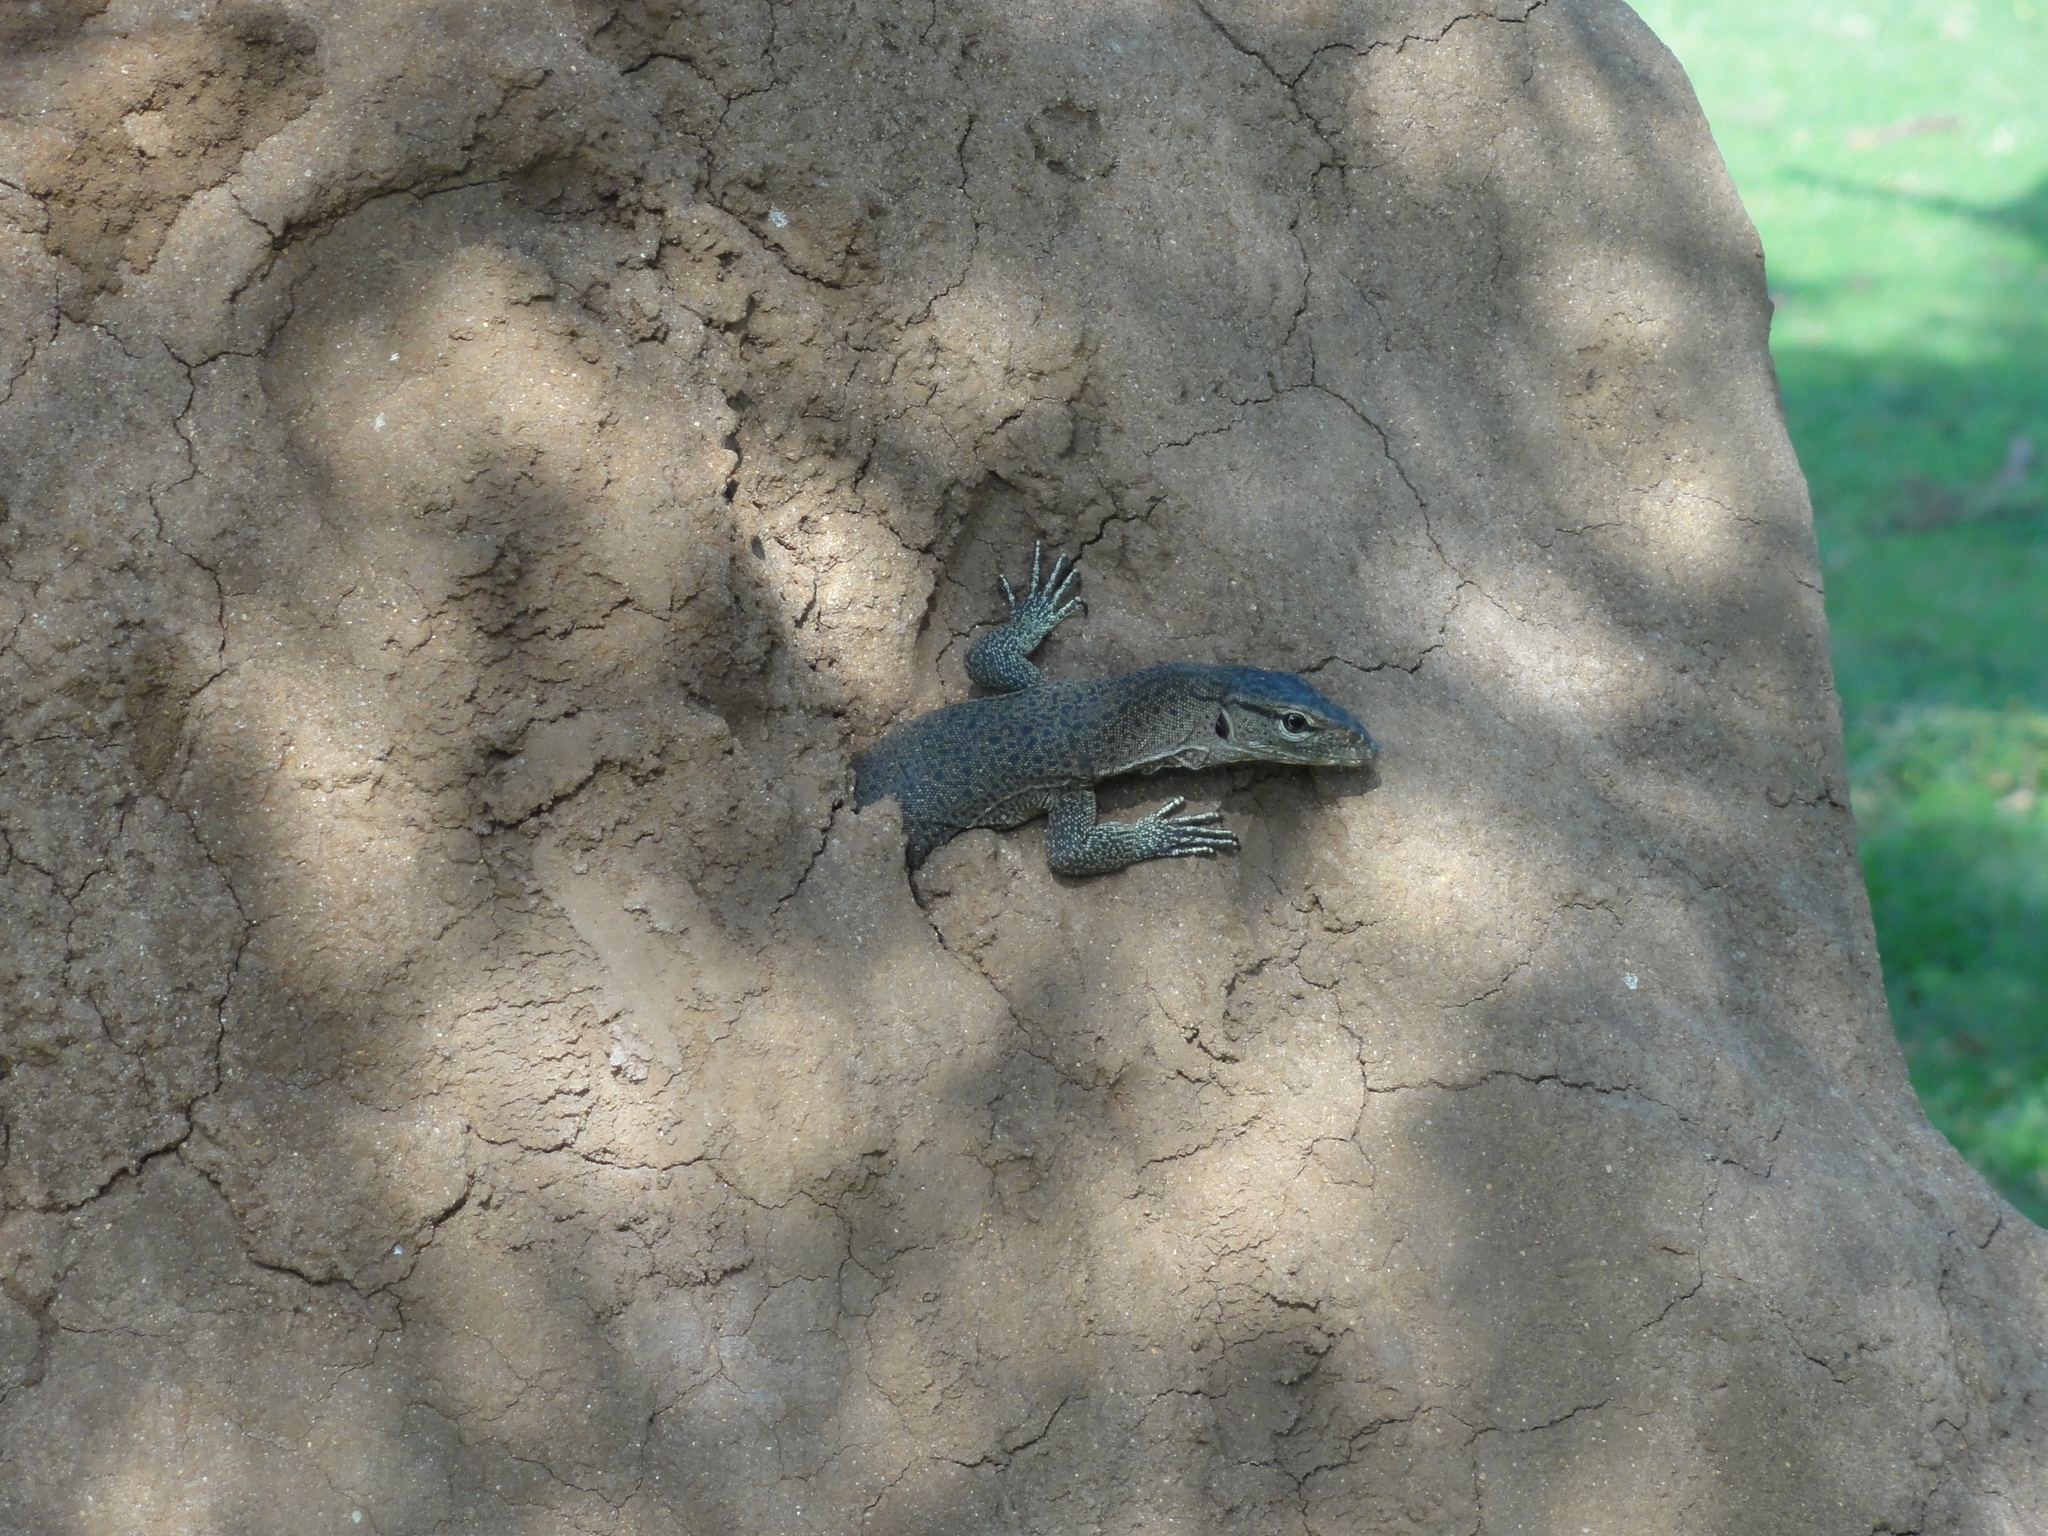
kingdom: Animalia
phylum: Chordata
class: Squamata
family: Varanidae
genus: Varanus
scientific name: Varanus bengalensis
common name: Bengal monitor
